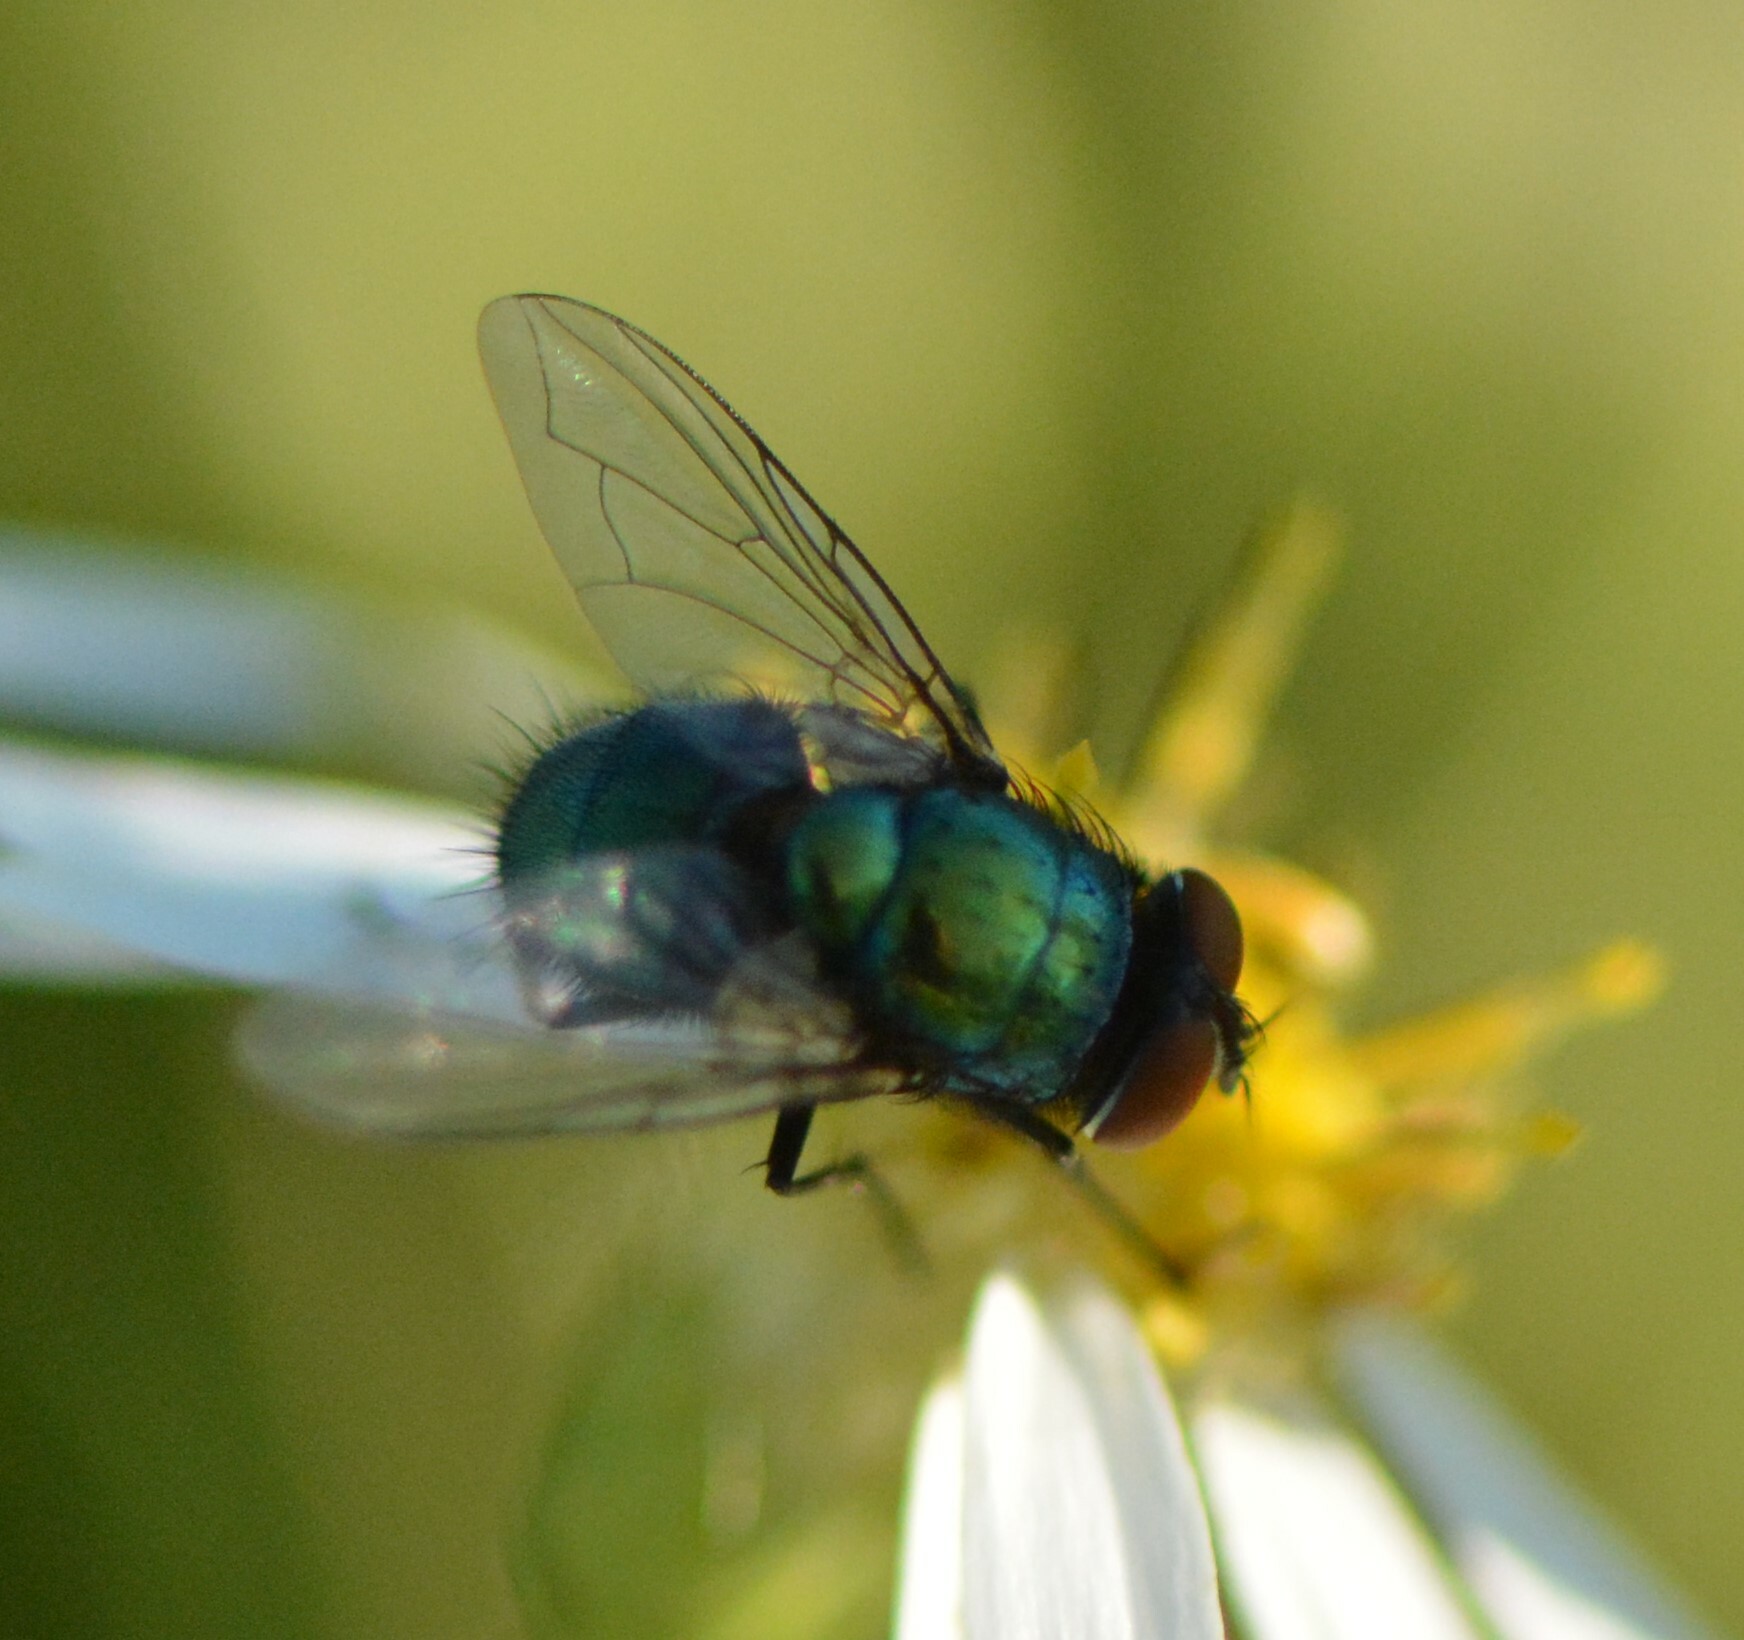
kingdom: Animalia
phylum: Arthropoda
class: Insecta
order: Diptera
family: Calliphoridae
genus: Lucilia
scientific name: Lucilia sericata
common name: Blow fly
